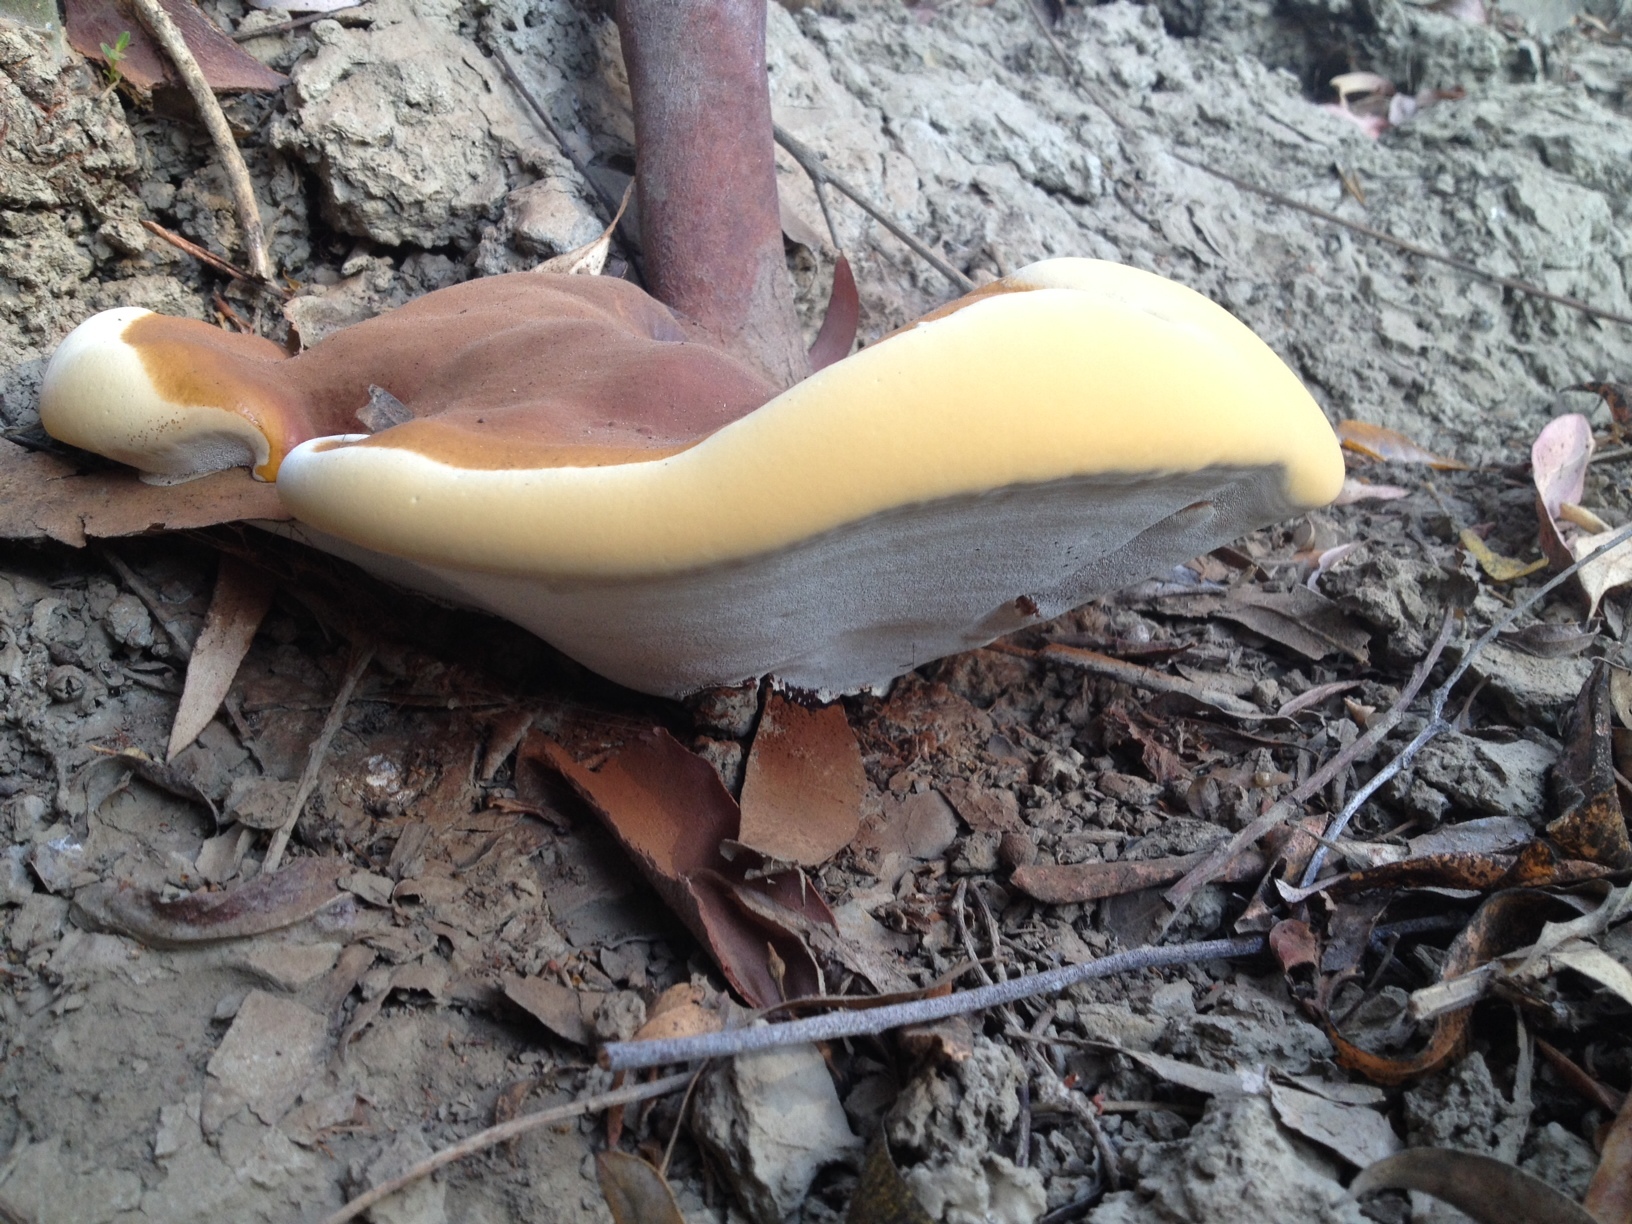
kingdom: Fungi
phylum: Basidiomycota
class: Agaricomycetes
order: Polyporales
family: Polyporaceae
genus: Ganoderma
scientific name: Ganoderma polychromum
